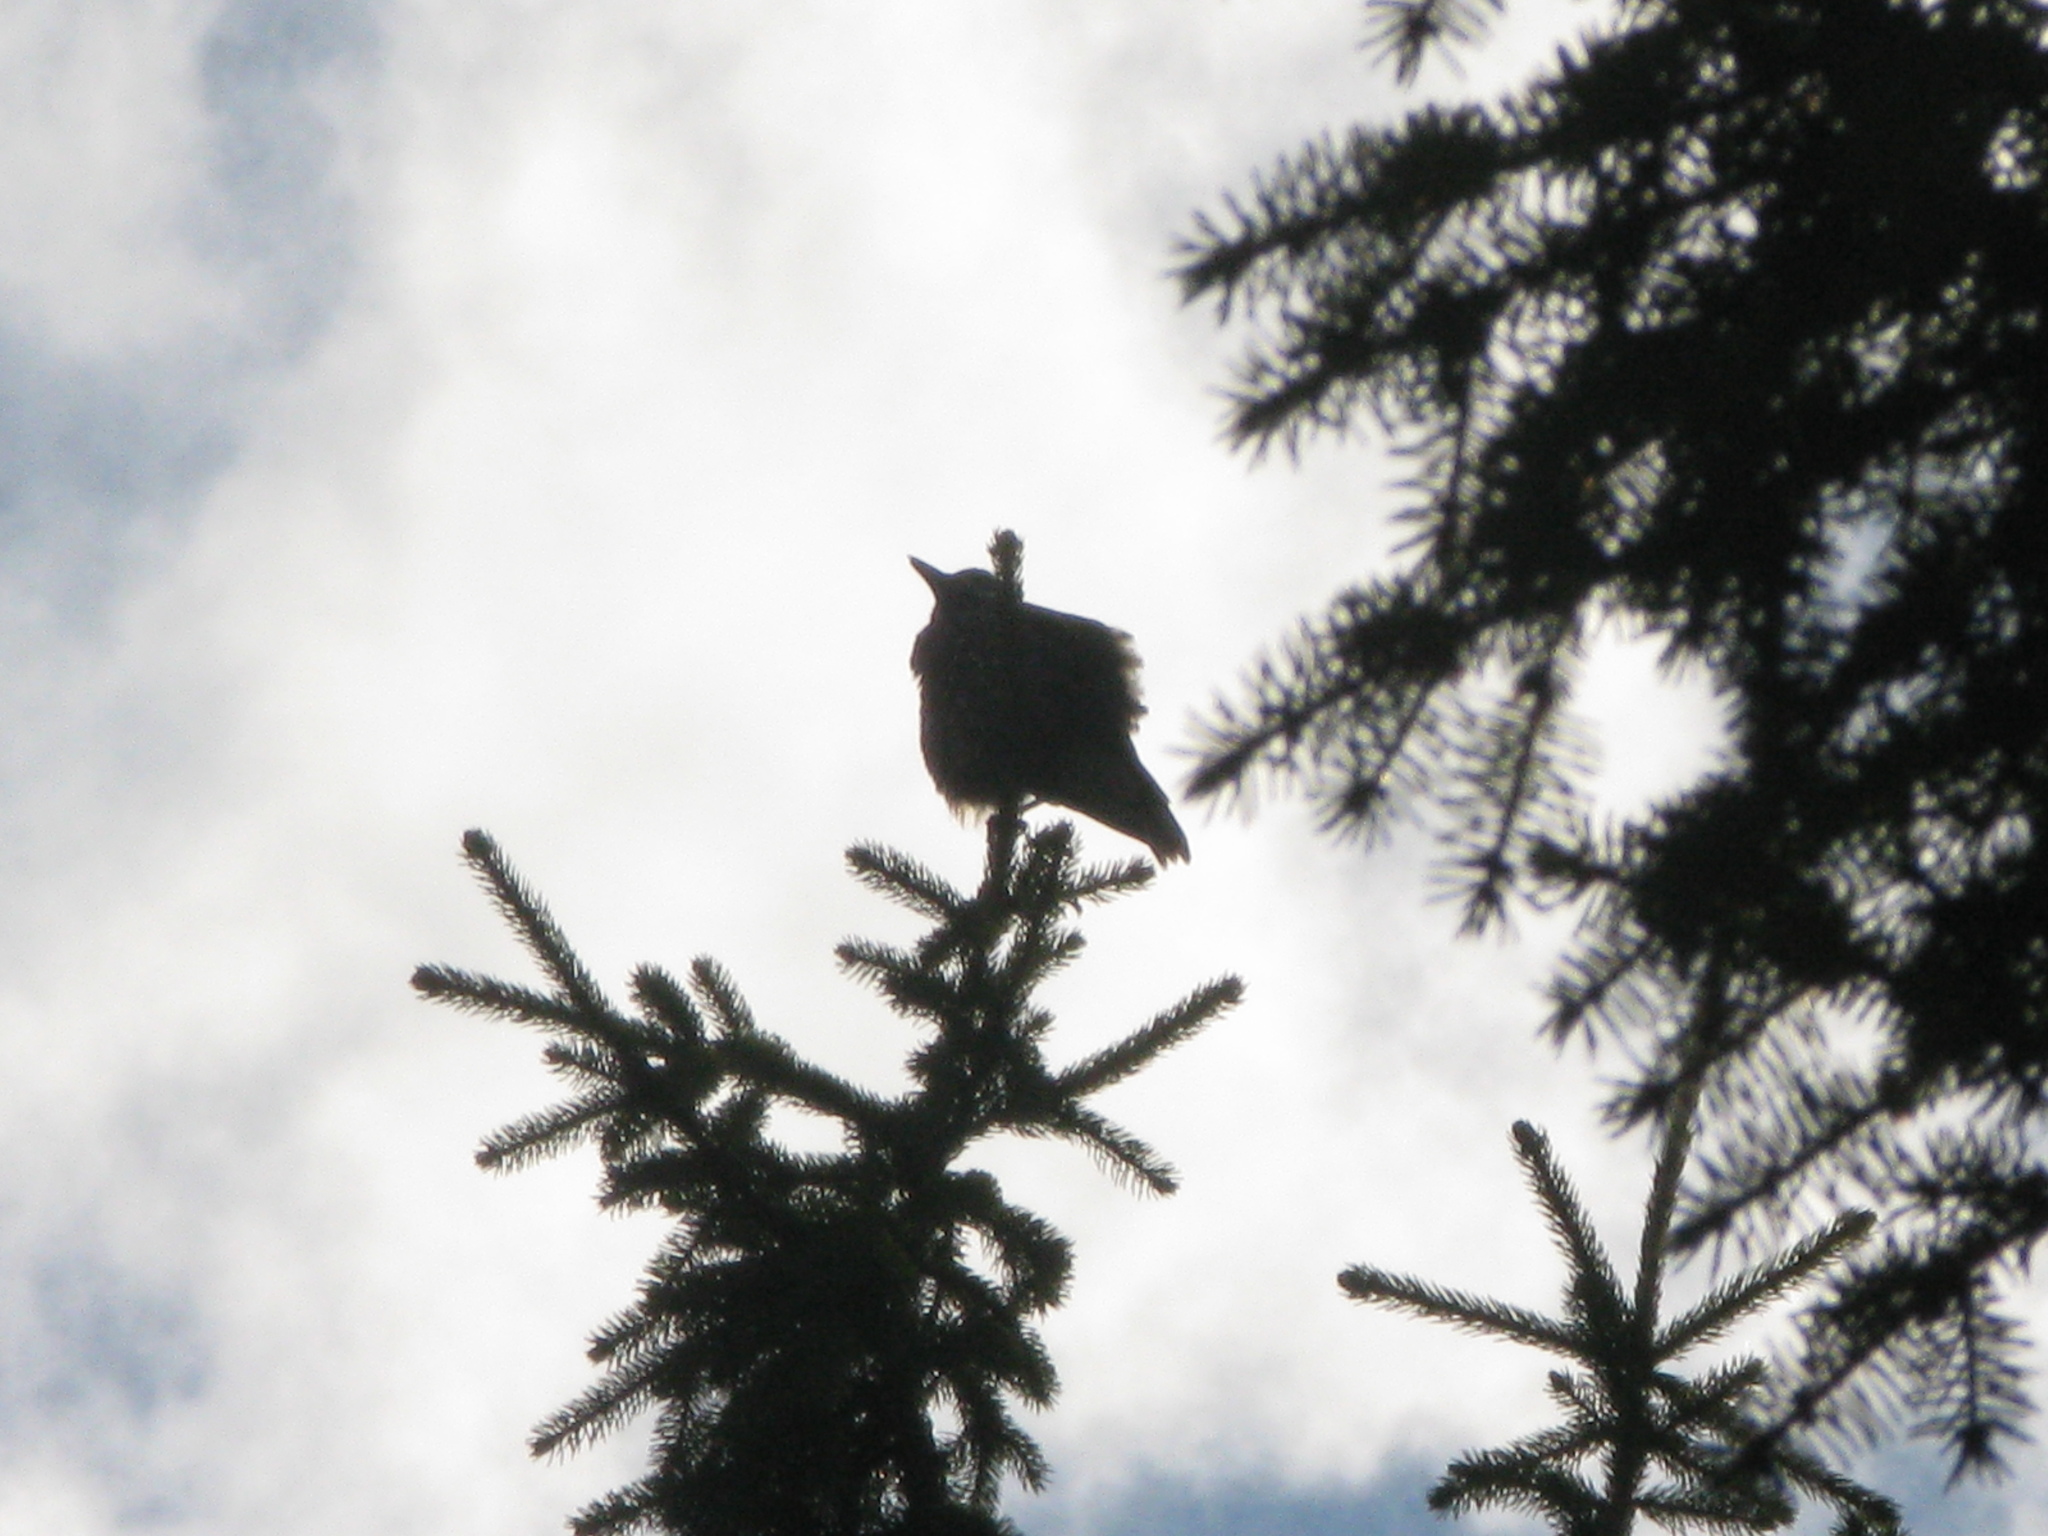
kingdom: Animalia
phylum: Chordata
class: Aves
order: Passeriformes
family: Corvidae
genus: Nucifraga
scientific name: Nucifraga caryocatactes
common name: Spotted nutcracker
